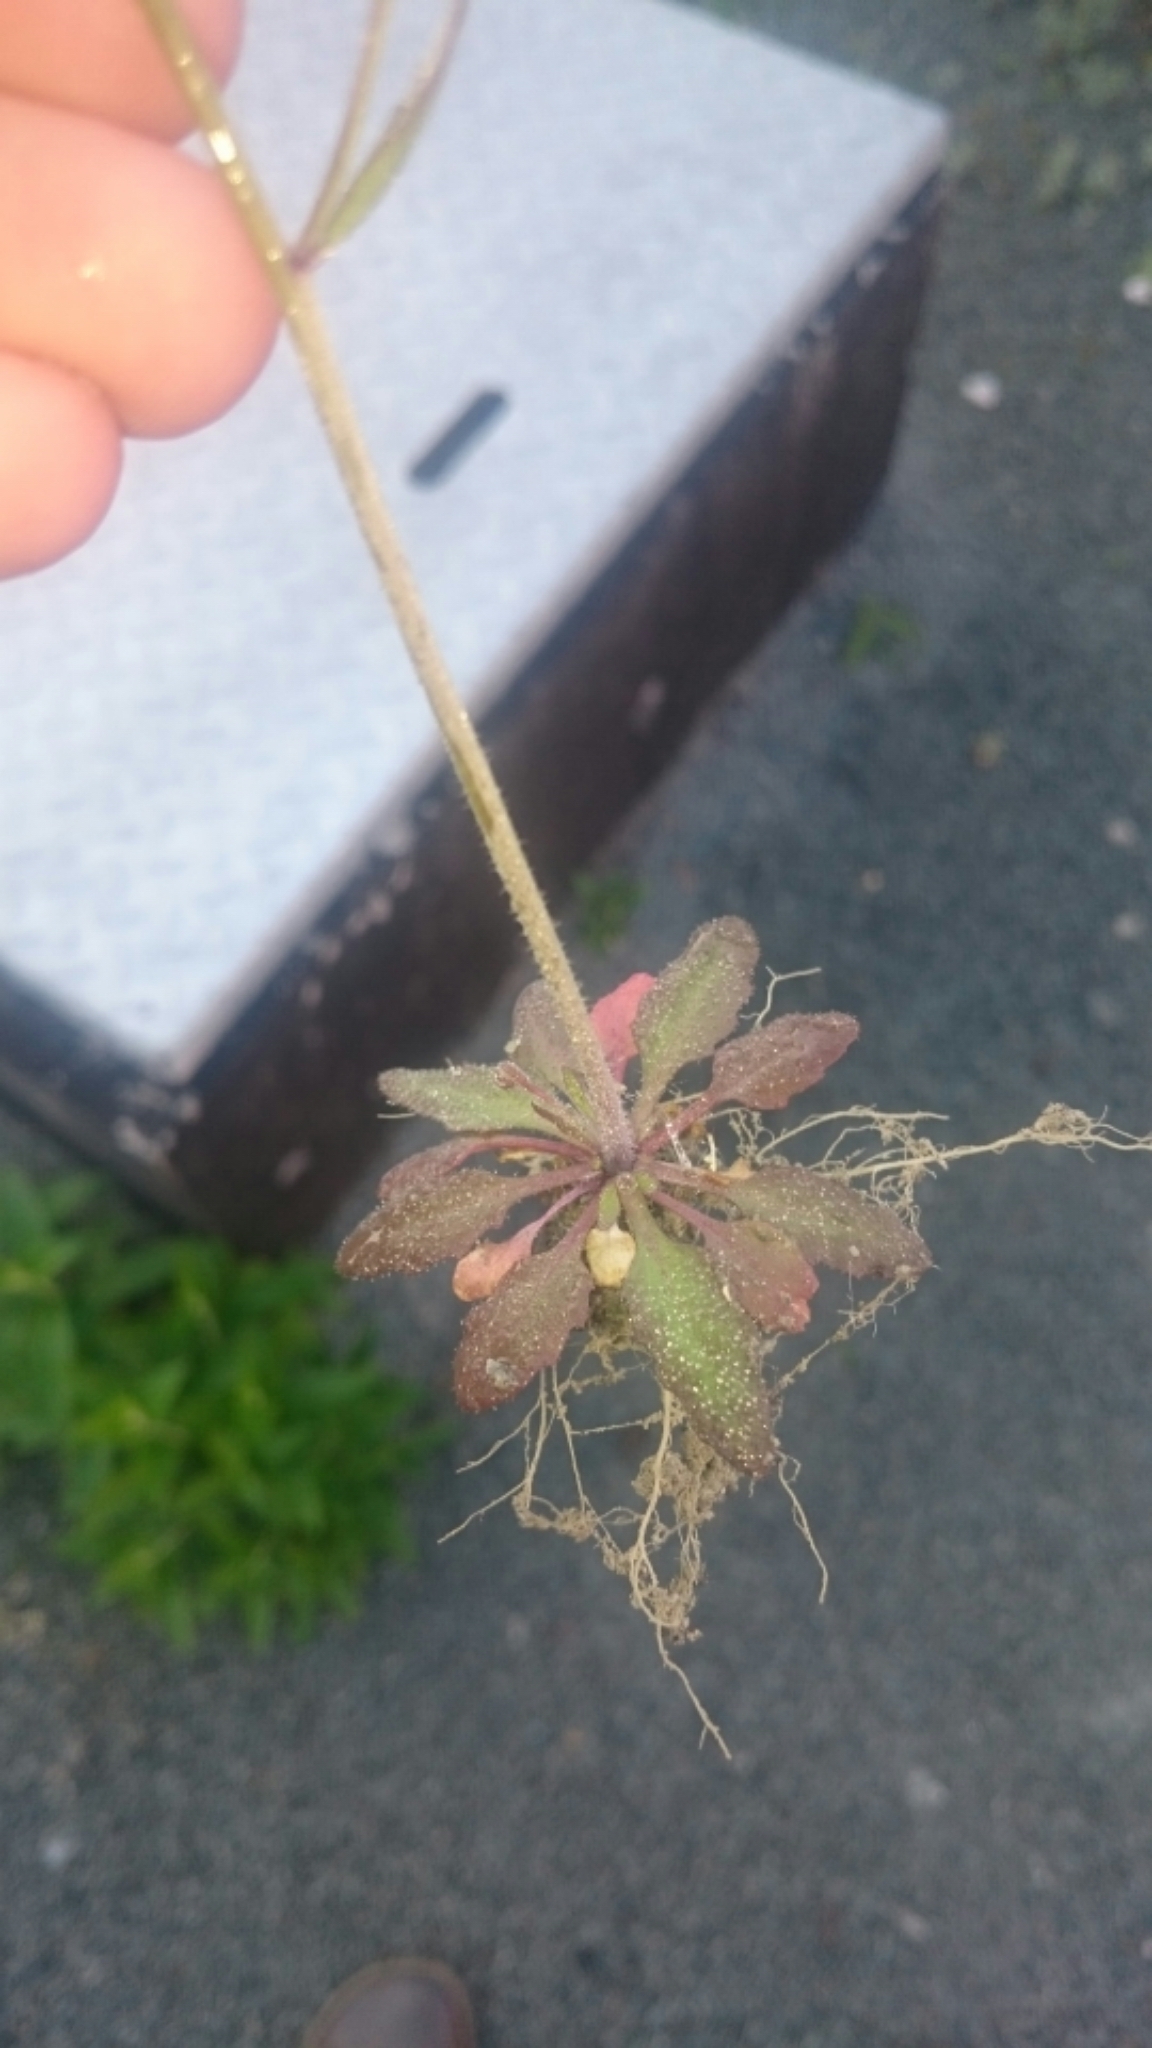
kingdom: Plantae
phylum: Tracheophyta
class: Magnoliopsida
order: Brassicales
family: Brassicaceae
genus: Arabidopsis
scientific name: Arabidopsis thaliana
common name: Thale cress
